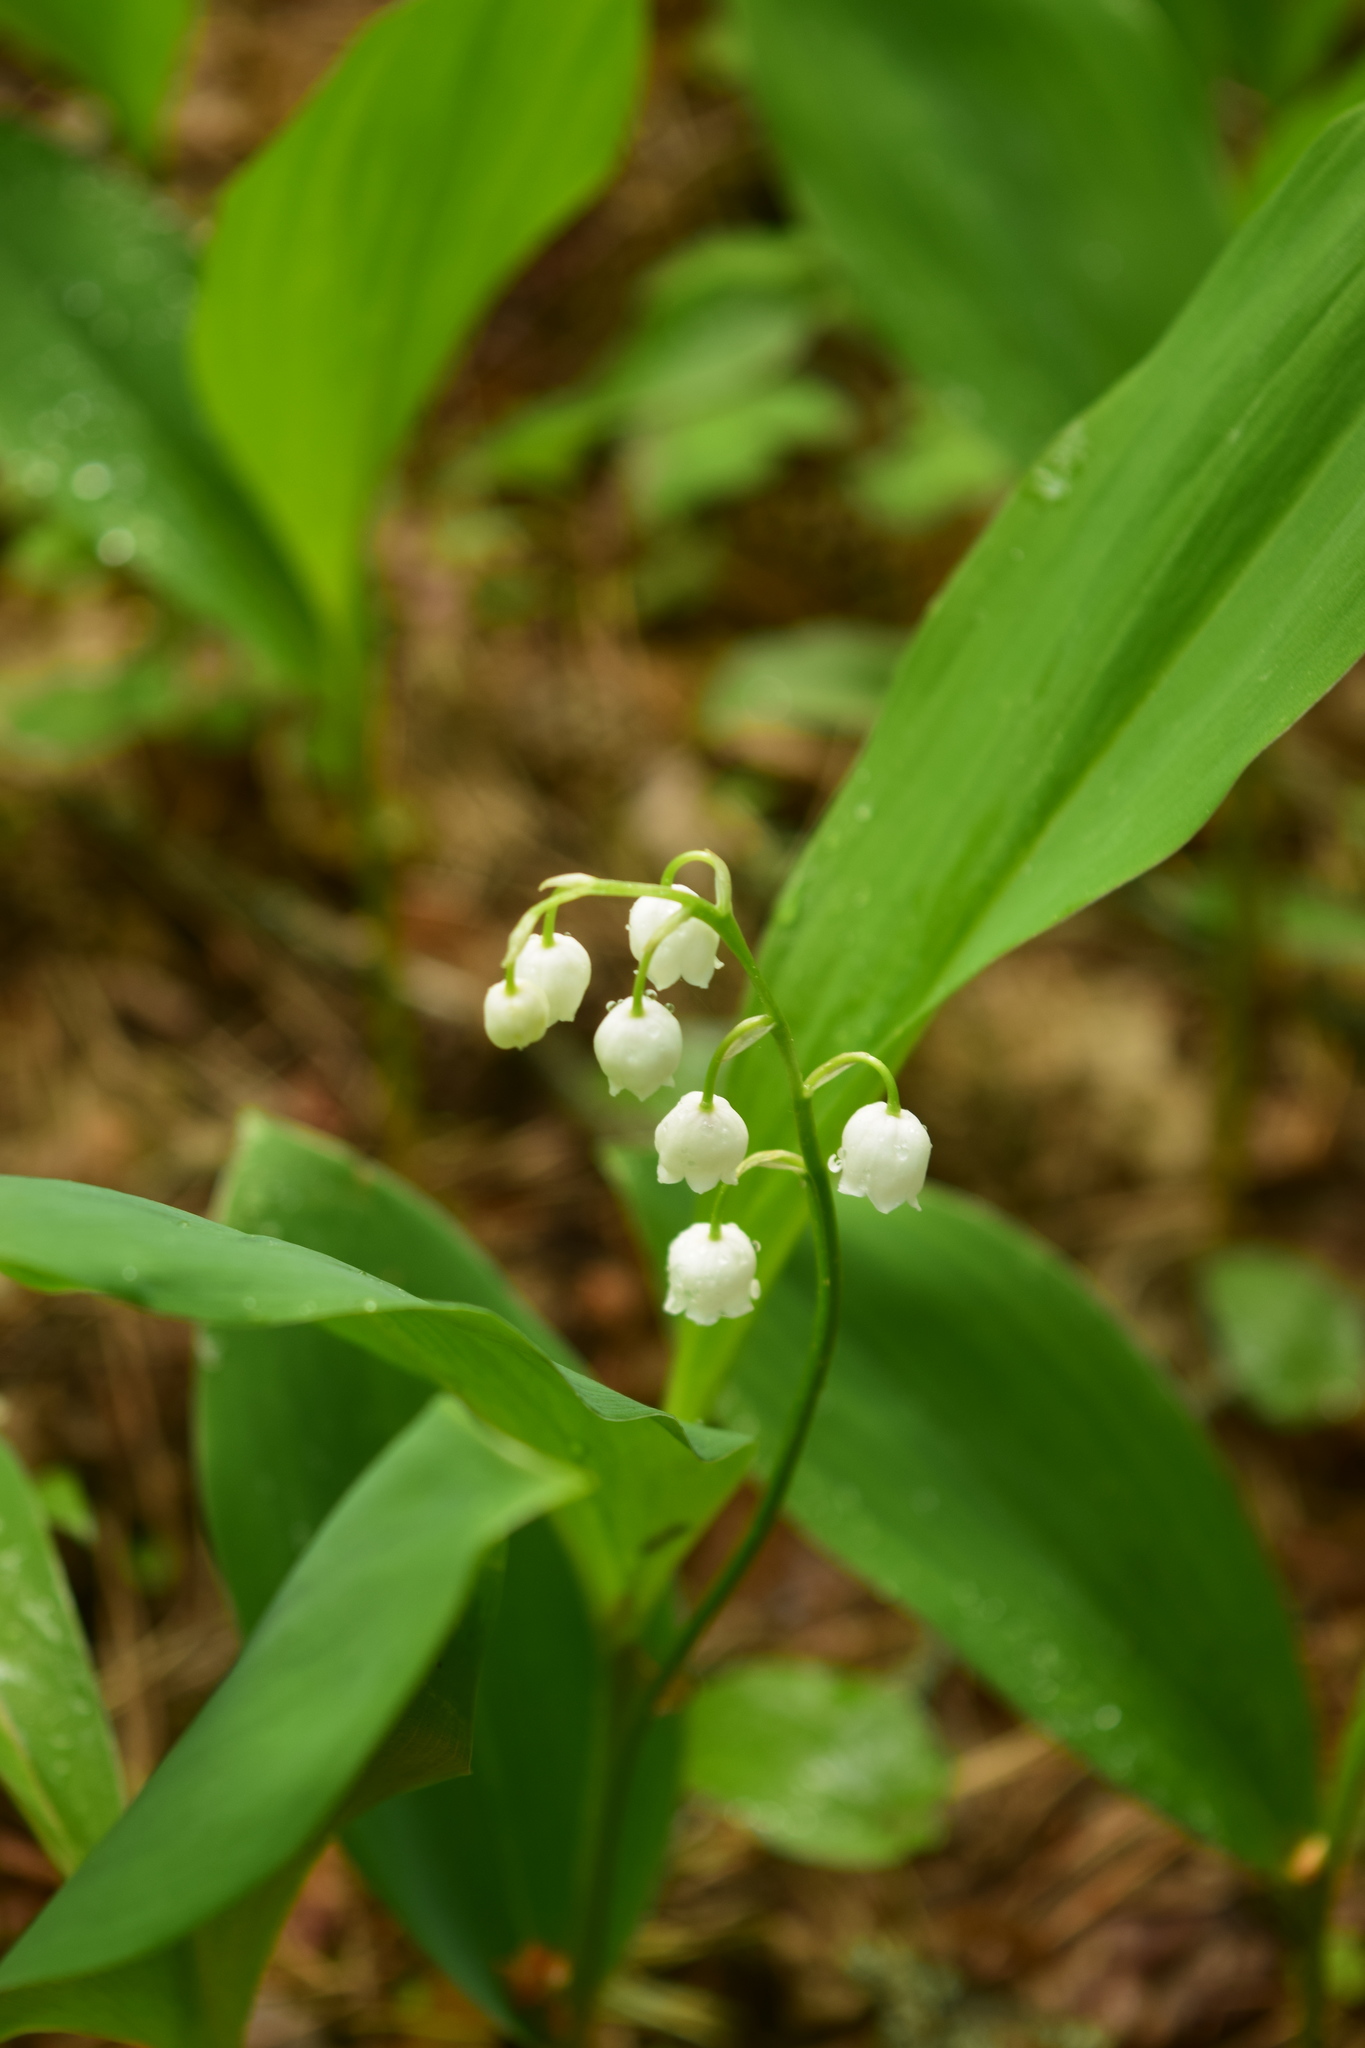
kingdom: Plantae
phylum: Tracheophyta
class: Liliopsida
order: Asparagales
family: Asparagaceae
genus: Convallaria
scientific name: Convallaria majalis
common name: Lily-of-the-valley
